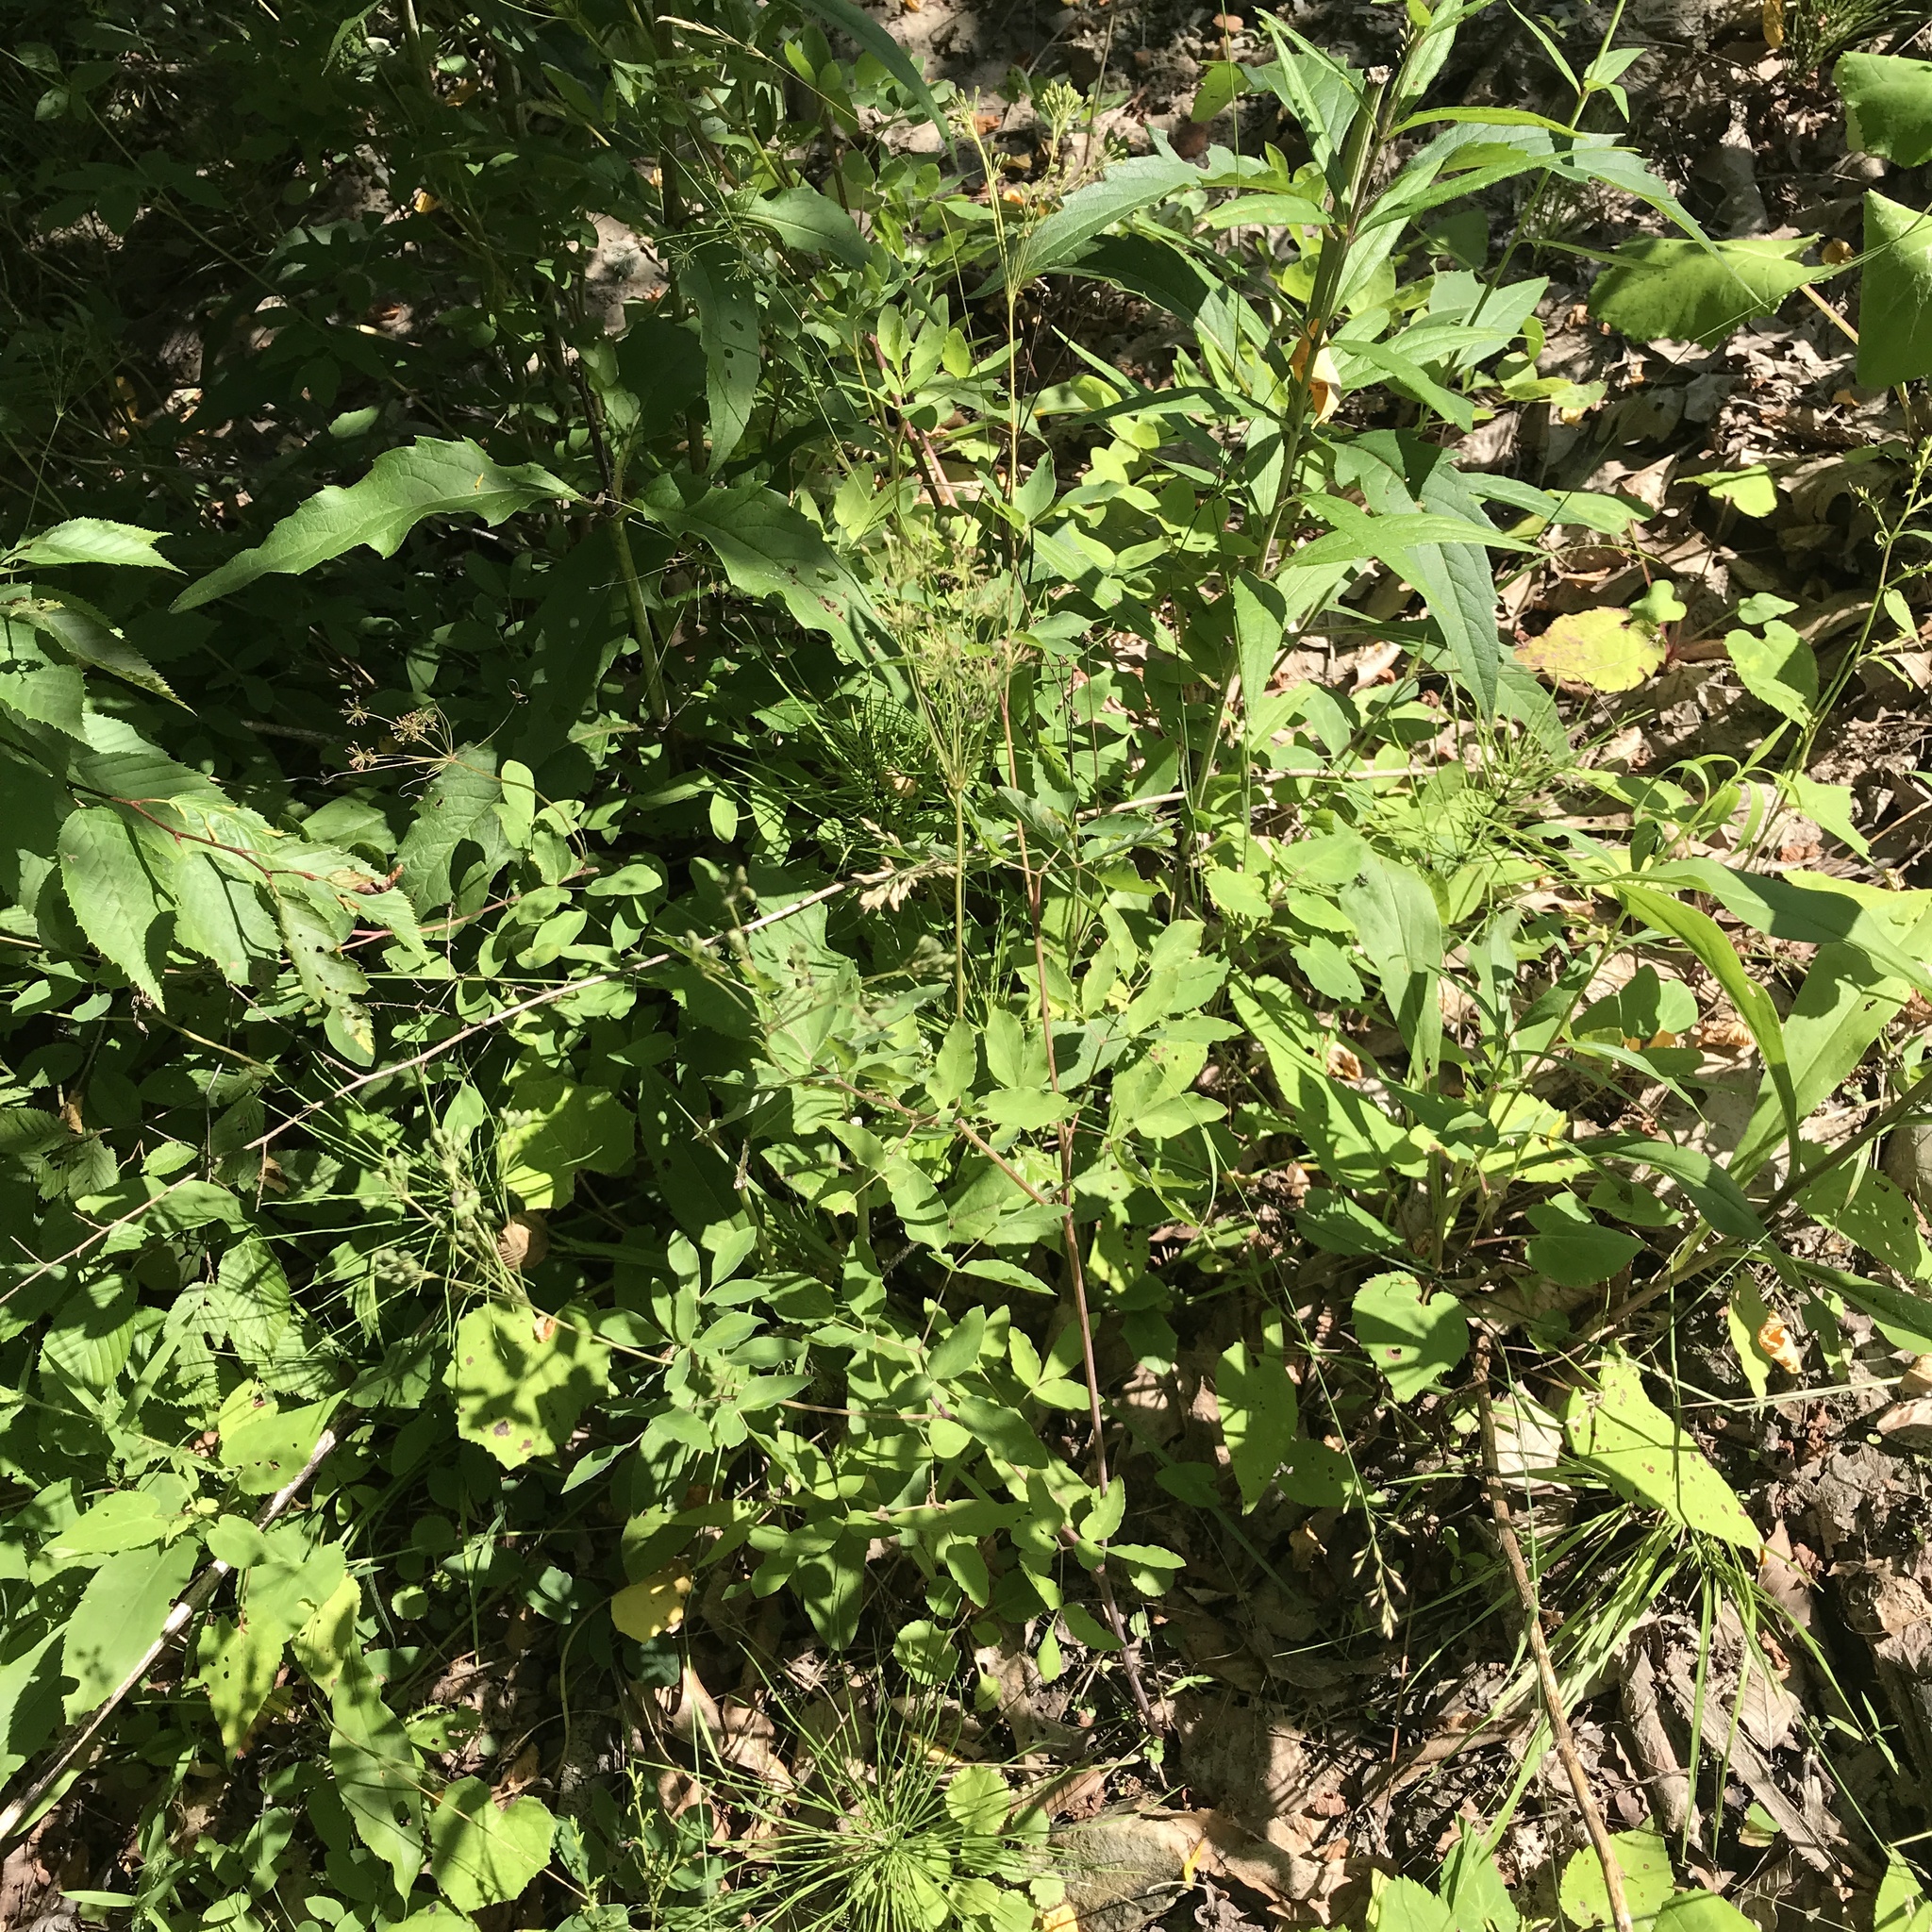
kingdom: Plantae
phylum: Tracheophyta
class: Magnoliopsida
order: Apiales
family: Apiaceae
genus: Taenidia
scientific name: Taenidia integerrima
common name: Golden alexander
